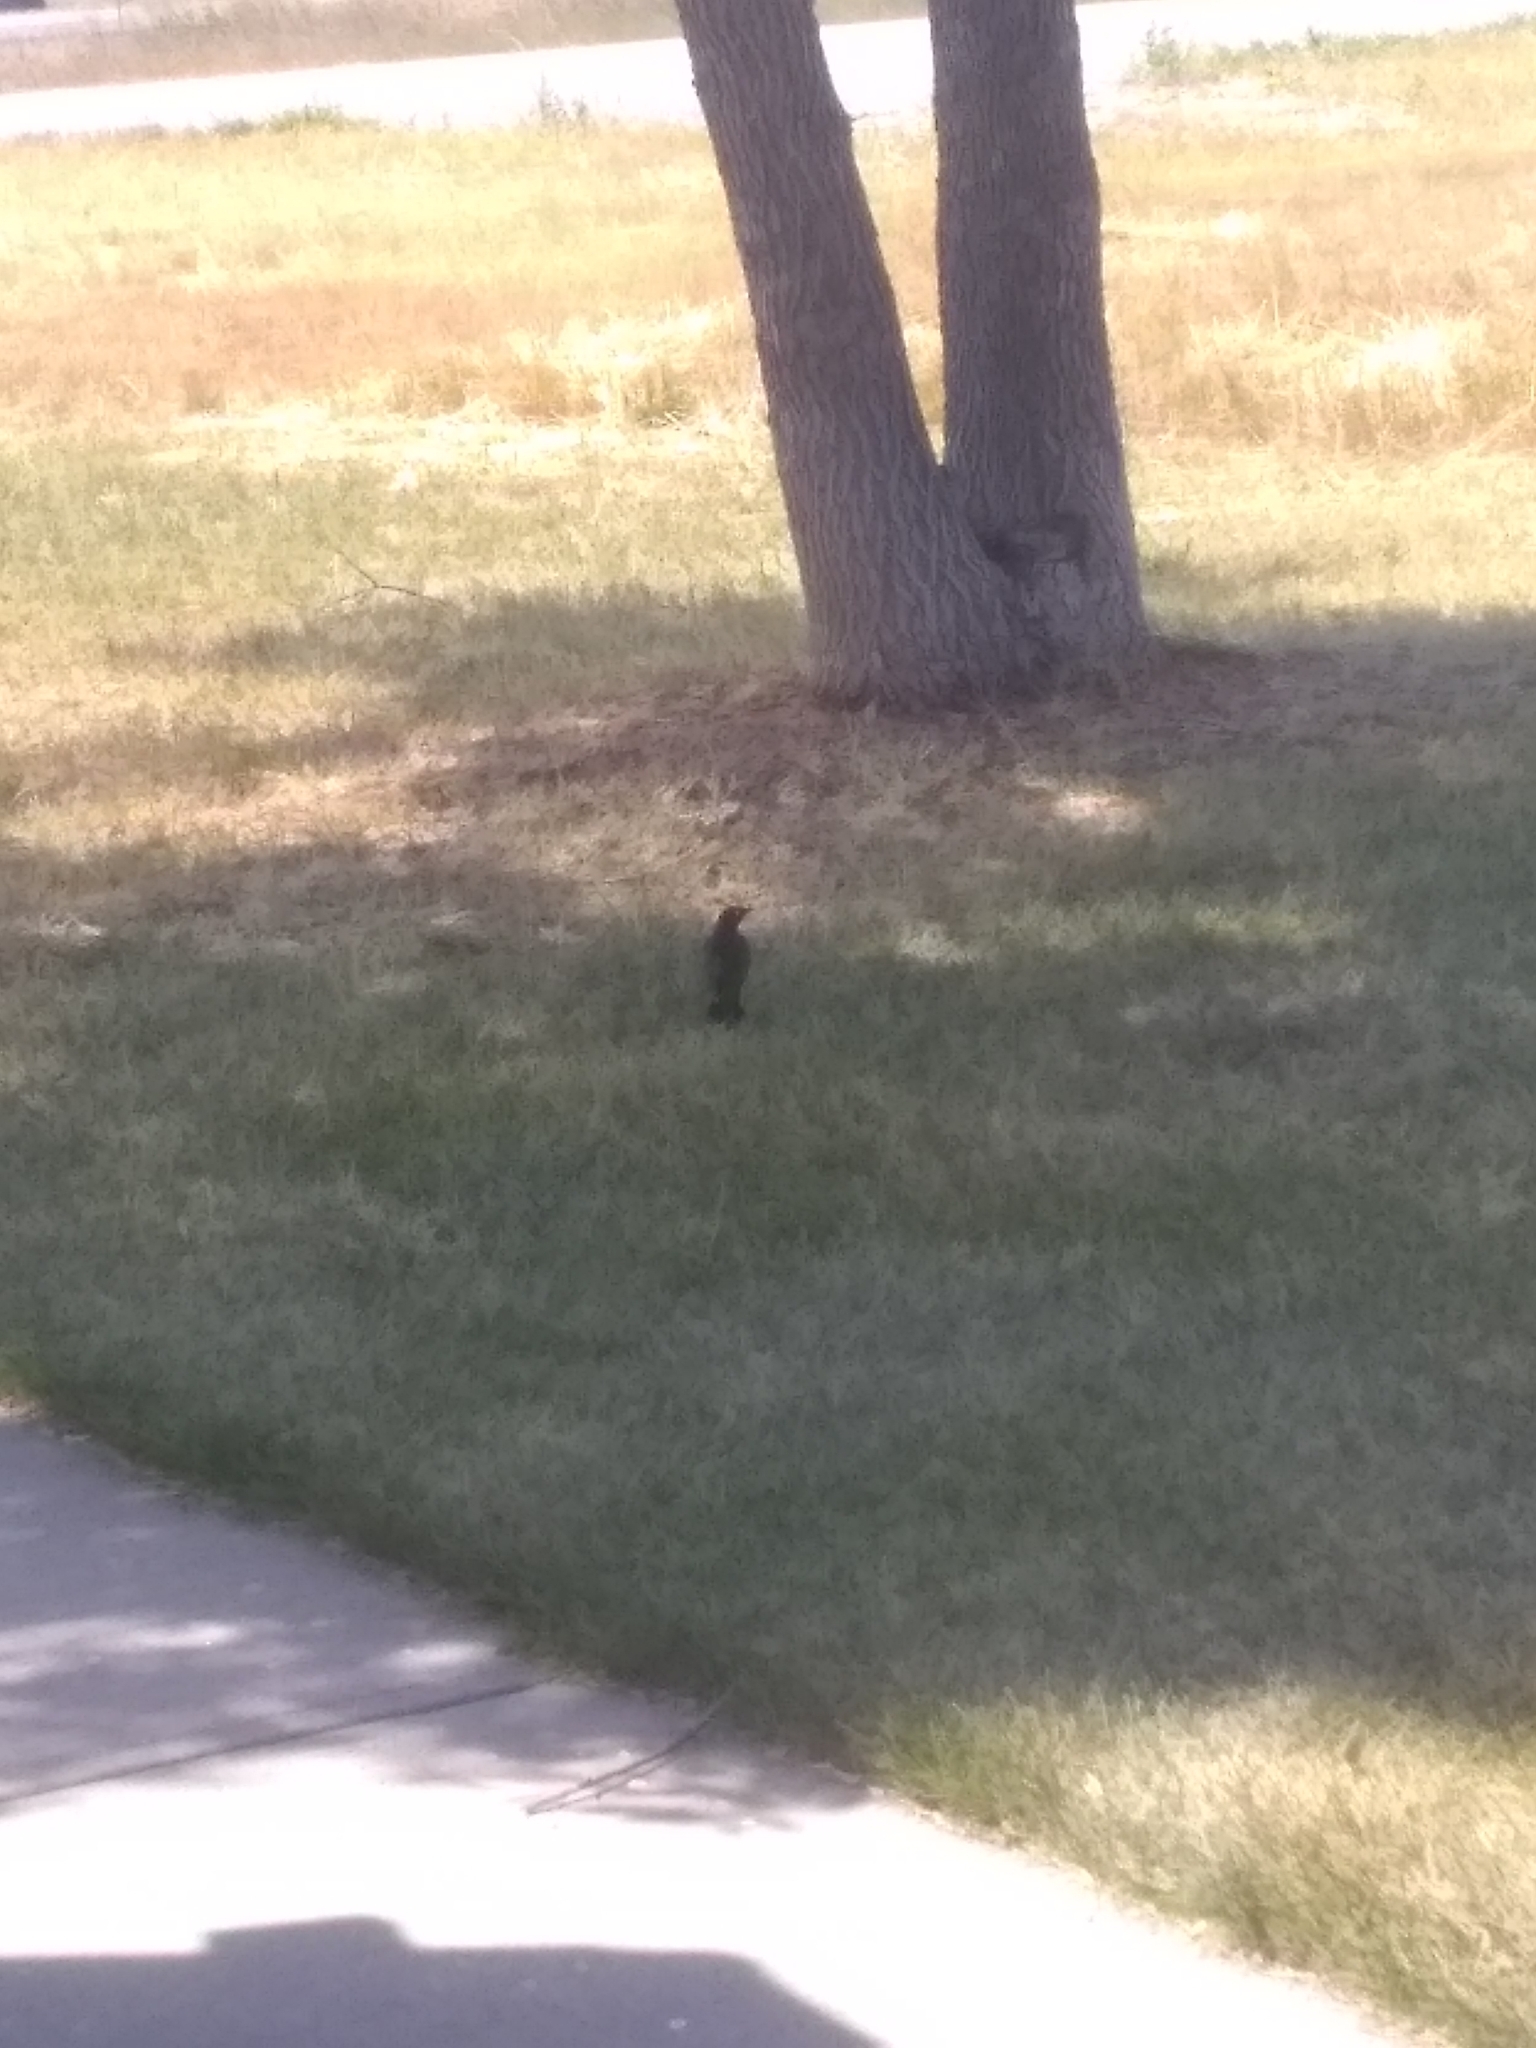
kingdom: Animalia
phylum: Chordata
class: Aves
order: Passeriformes
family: Icteridae
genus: Euphagus
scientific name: Euphagus cyanocephalus
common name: Brewer's blackbird
